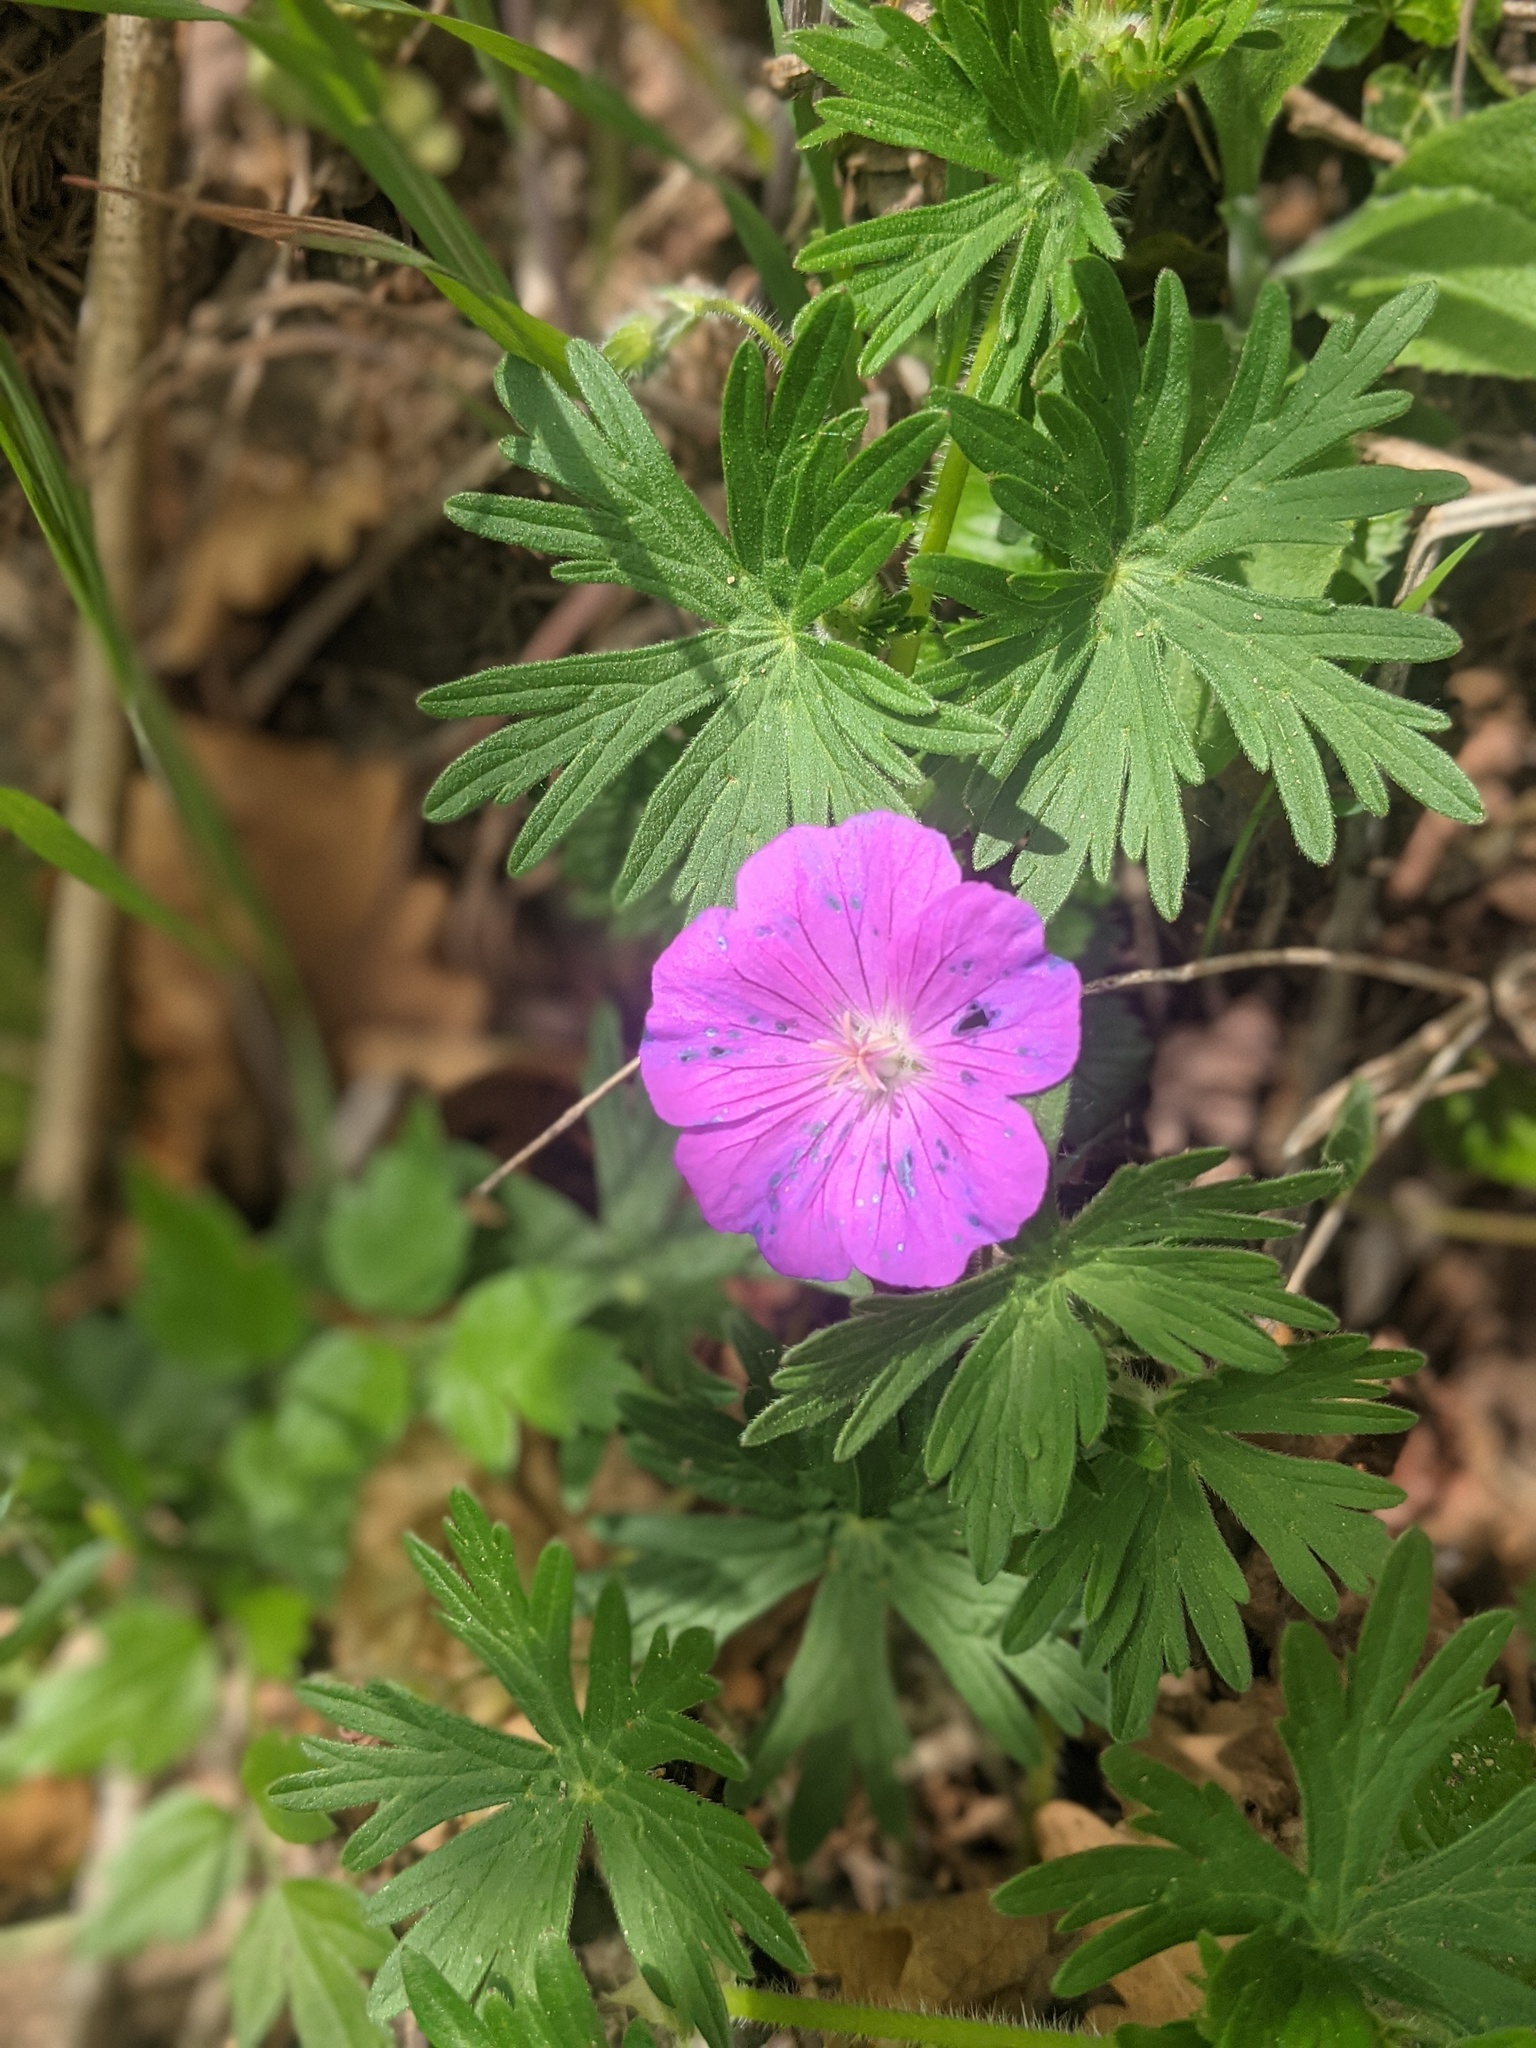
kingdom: Plantae
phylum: Tracheophyta
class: Magnoliopsida
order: Geraniales
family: Geraniaceae
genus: Geranium
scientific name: Geranium sanguineum
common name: Bloody crane's-bill
